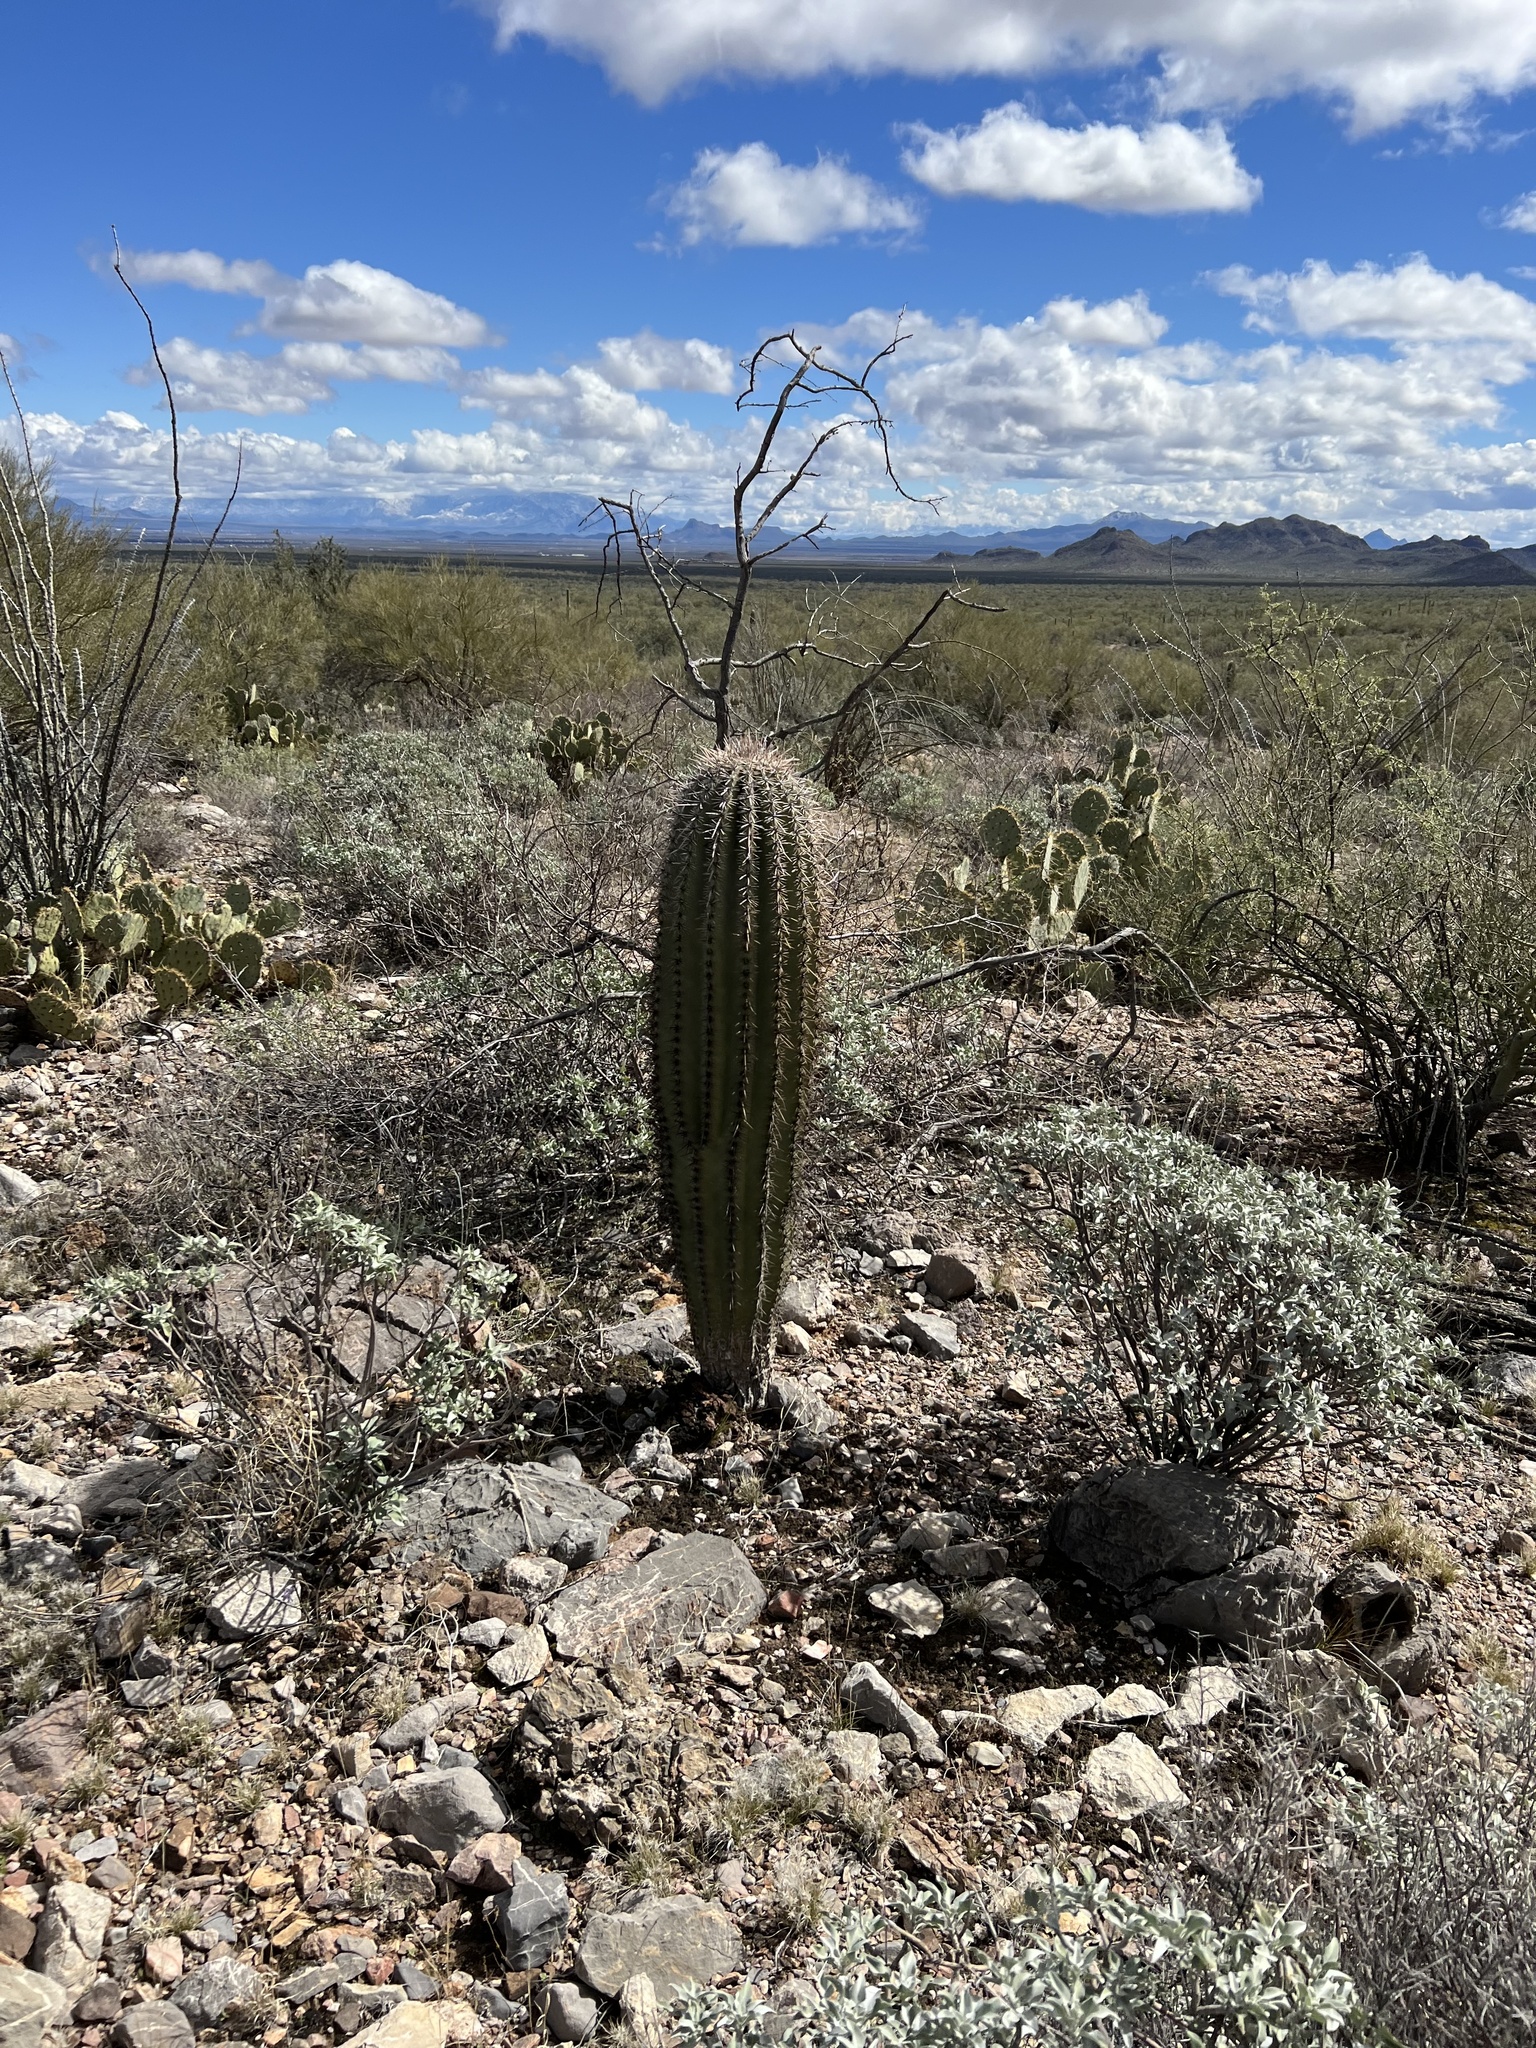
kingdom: Plantae
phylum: Tracheophyta
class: Magnoliopsida
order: Caryophyllales
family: Cactaceae
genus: Carnegiea
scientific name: Carnegiea gigantea
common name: Saguaro
